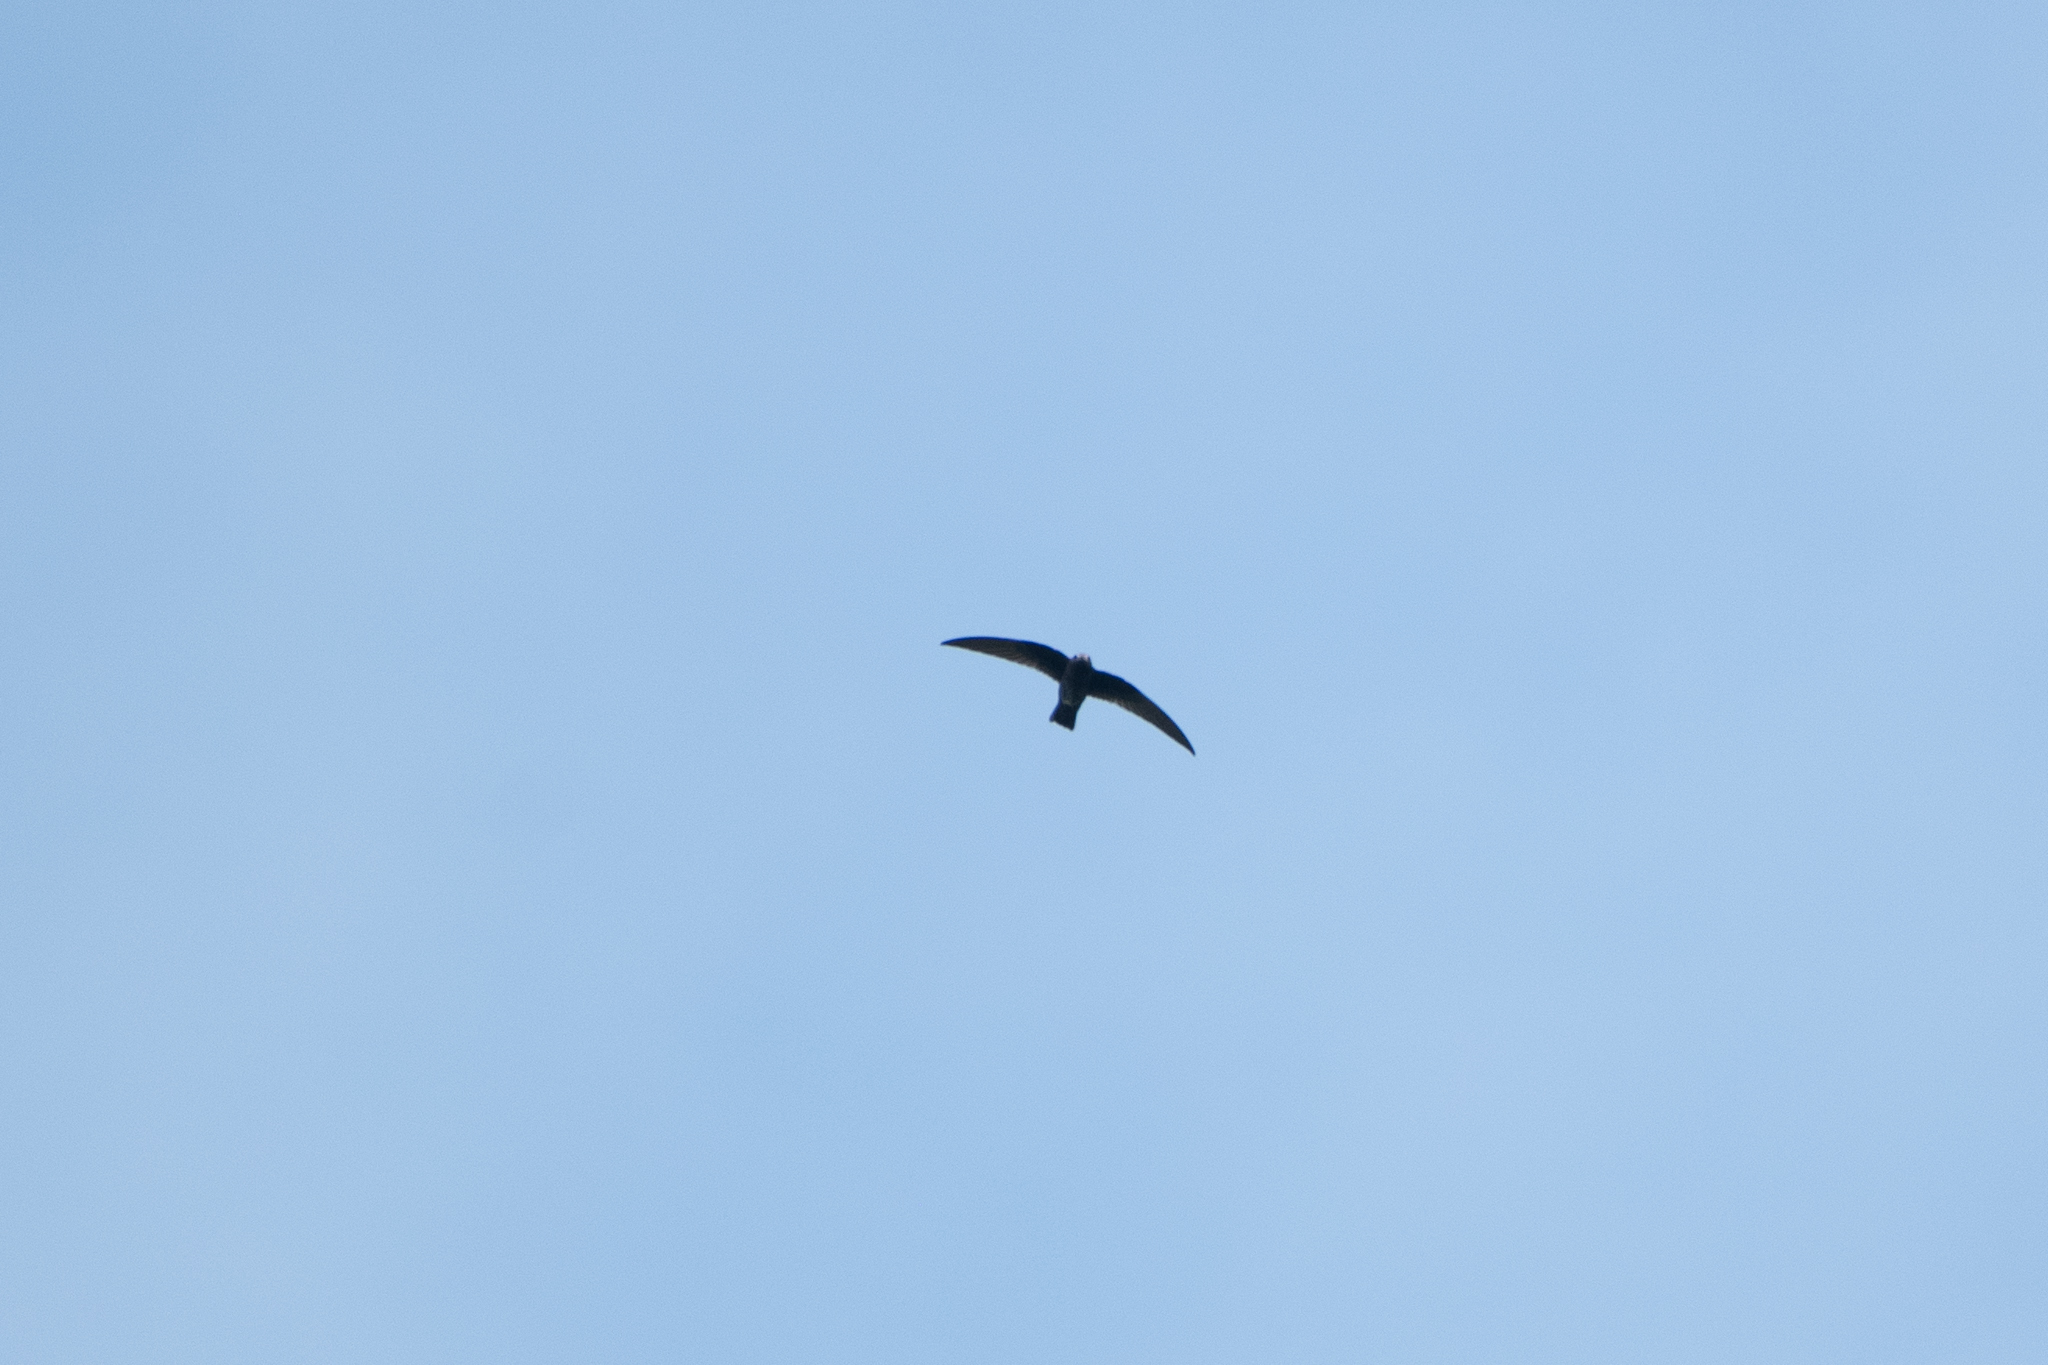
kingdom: Animalia
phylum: Chordata
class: Aves
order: Apodiformes
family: Apodidae
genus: Cypseloides
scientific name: Cypseloides niger
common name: Black swift
